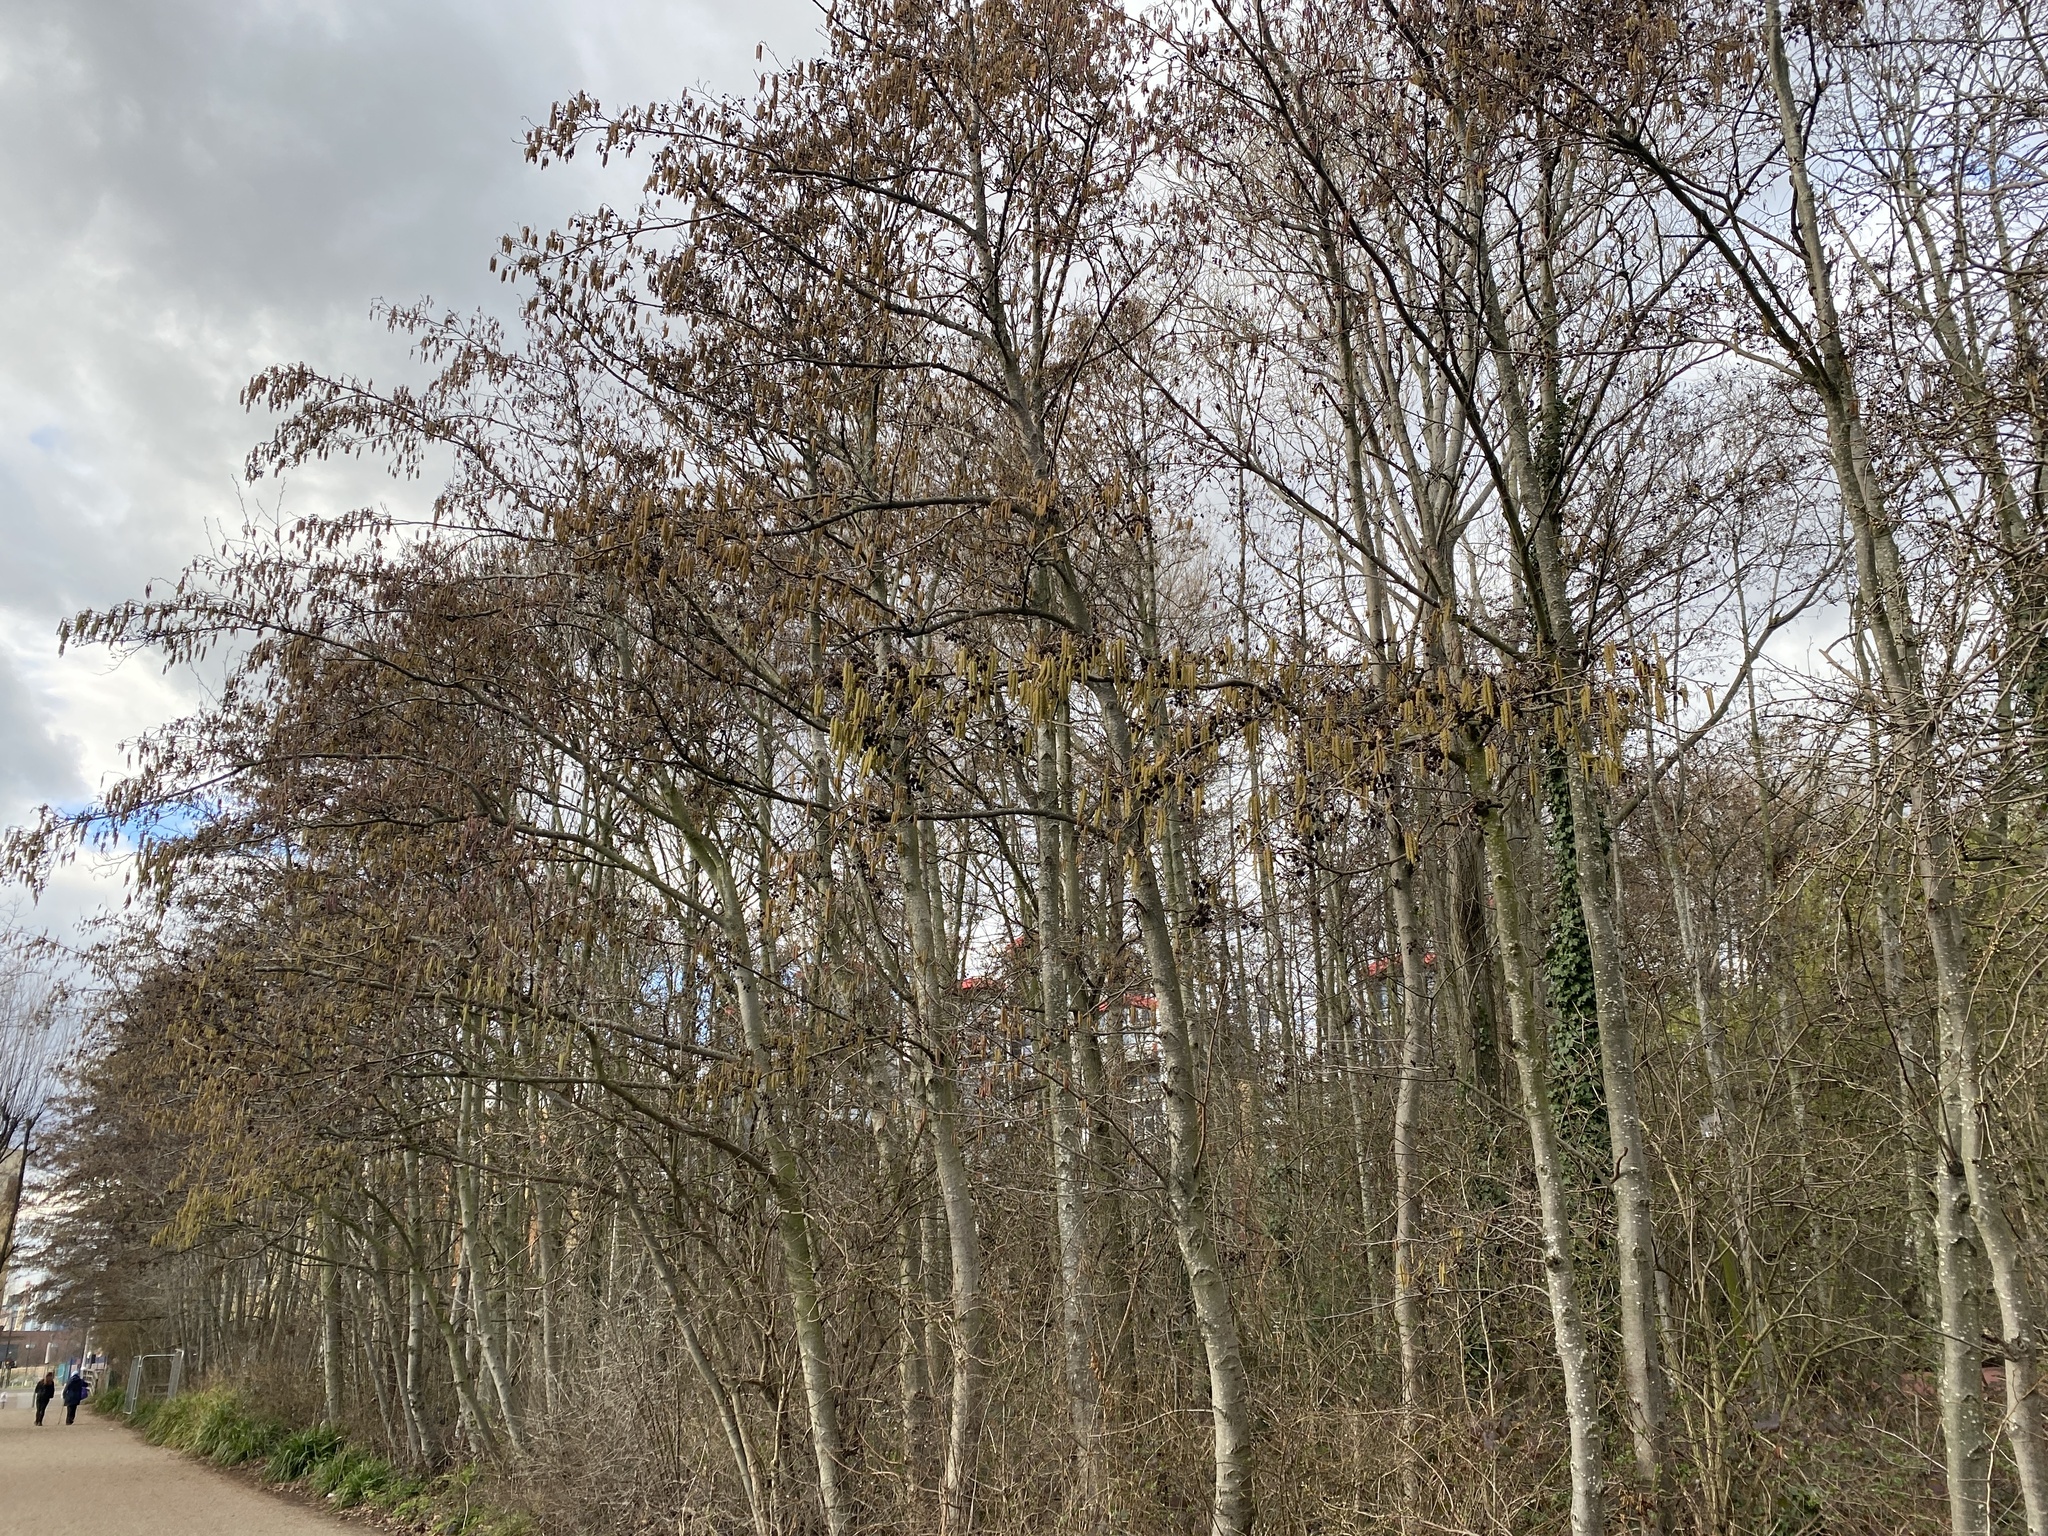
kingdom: Plantae
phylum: Tracheophyta
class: Magnoliopsida
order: Fagales
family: Betulaceae
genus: Alnus
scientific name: Alnus glutinosa
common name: Black alder
